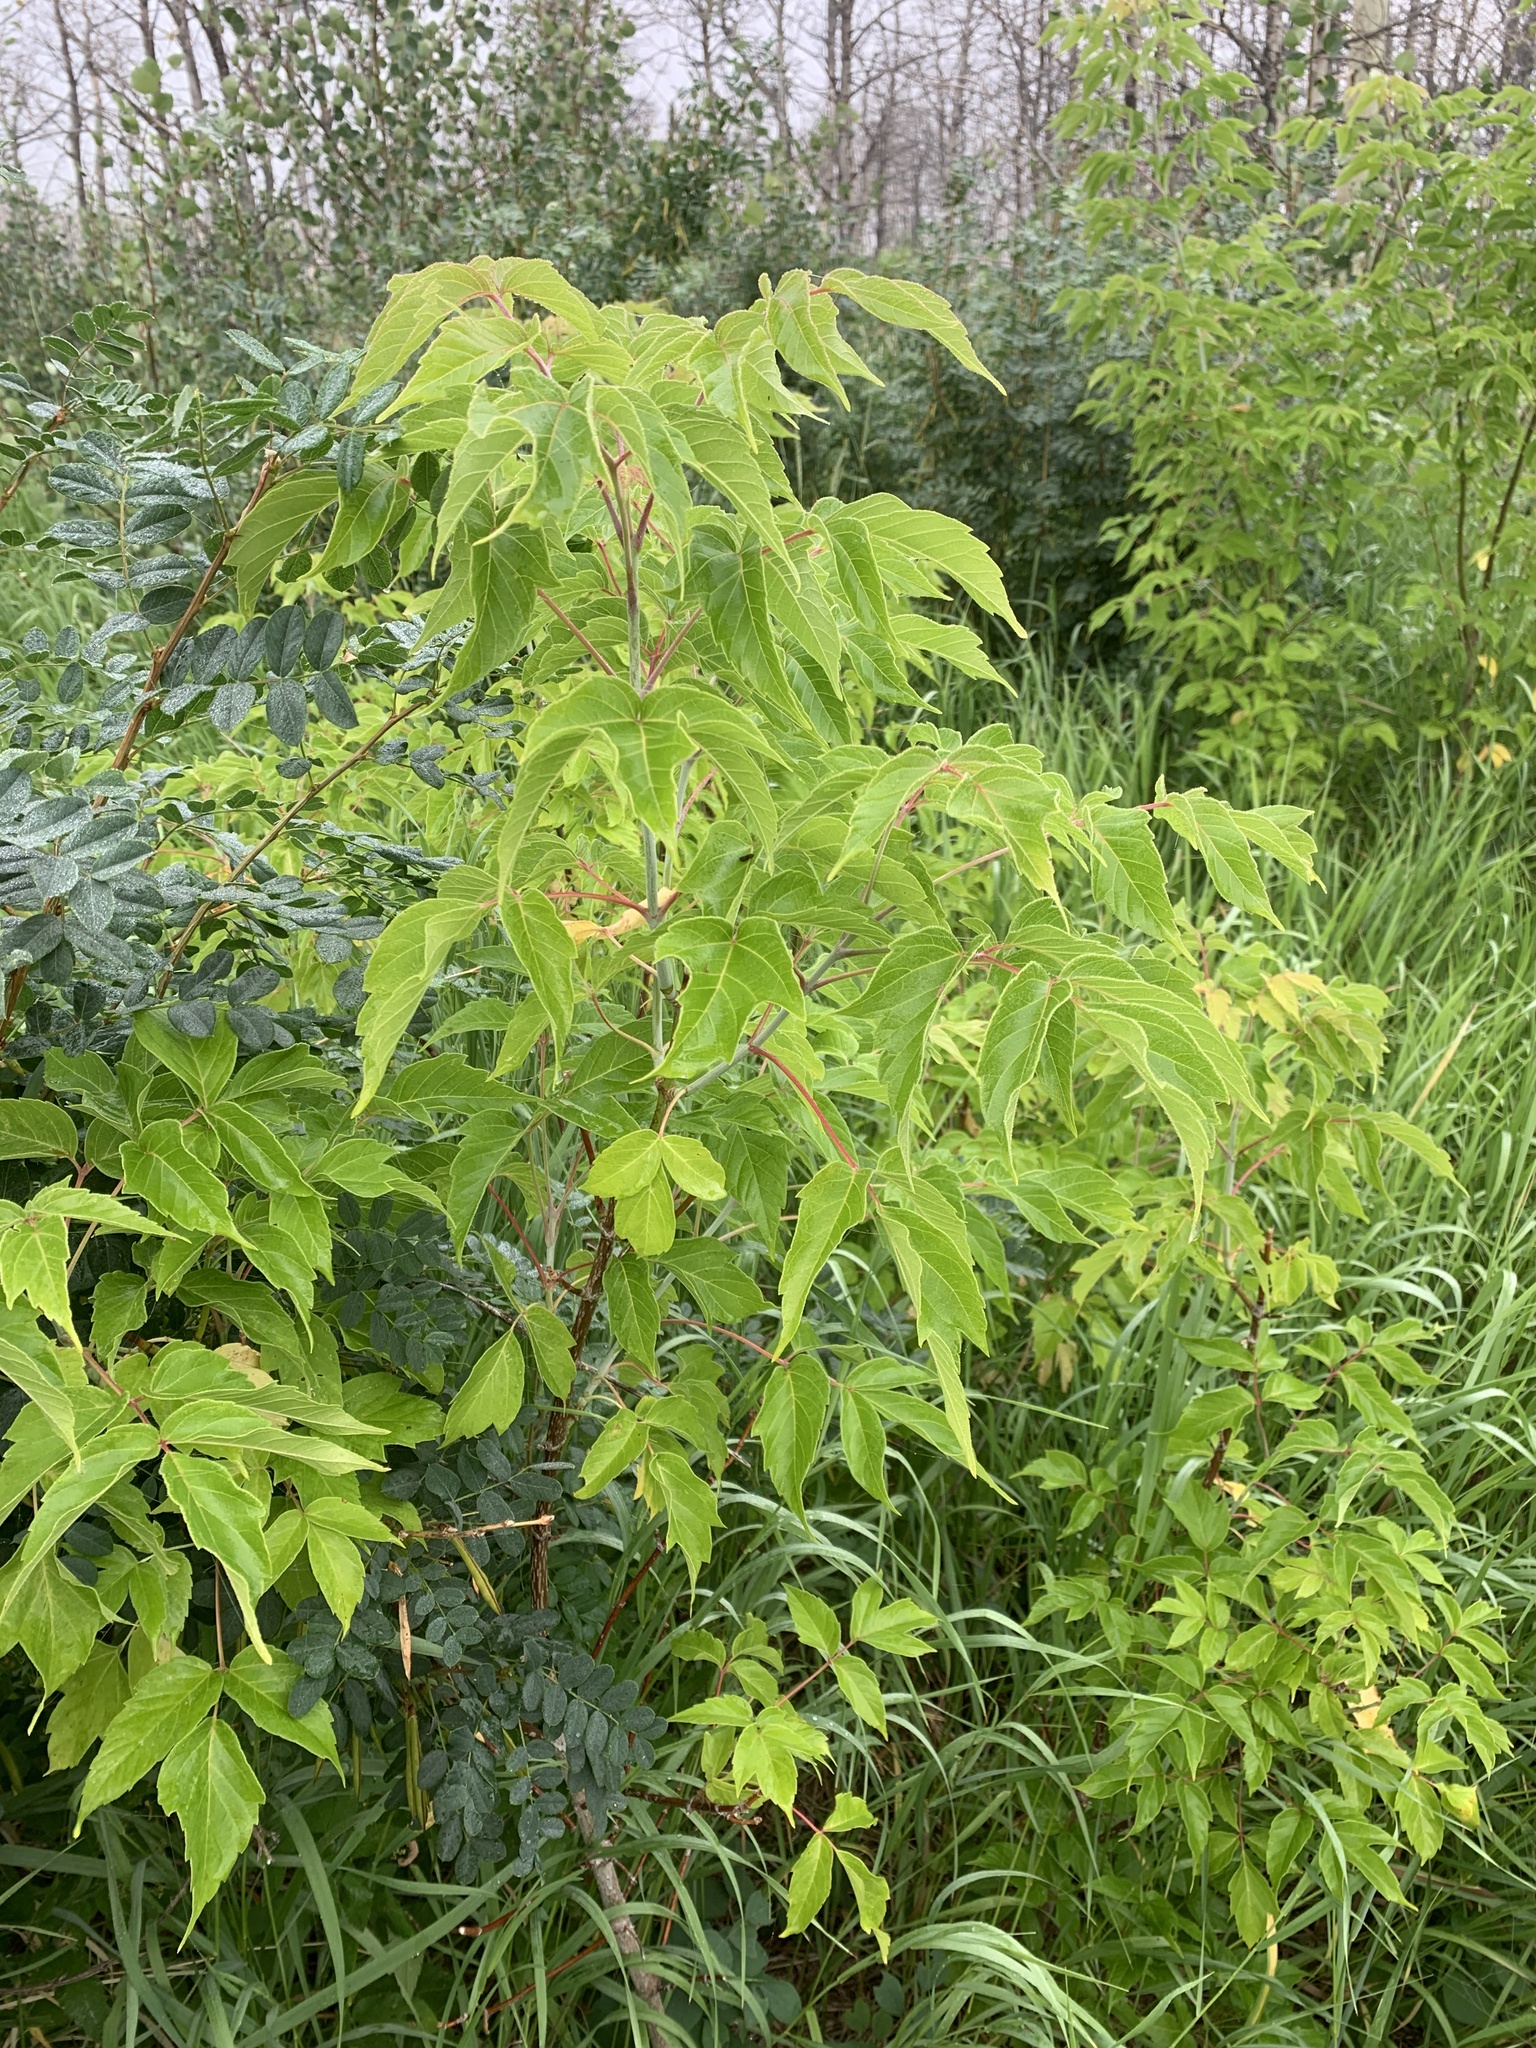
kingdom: Plantae
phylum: Tracheophyta
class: Magnoliopsida
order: Sapindales
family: Sapindaceae
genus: Acer
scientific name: Acer negundo
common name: Ashleaf maple
